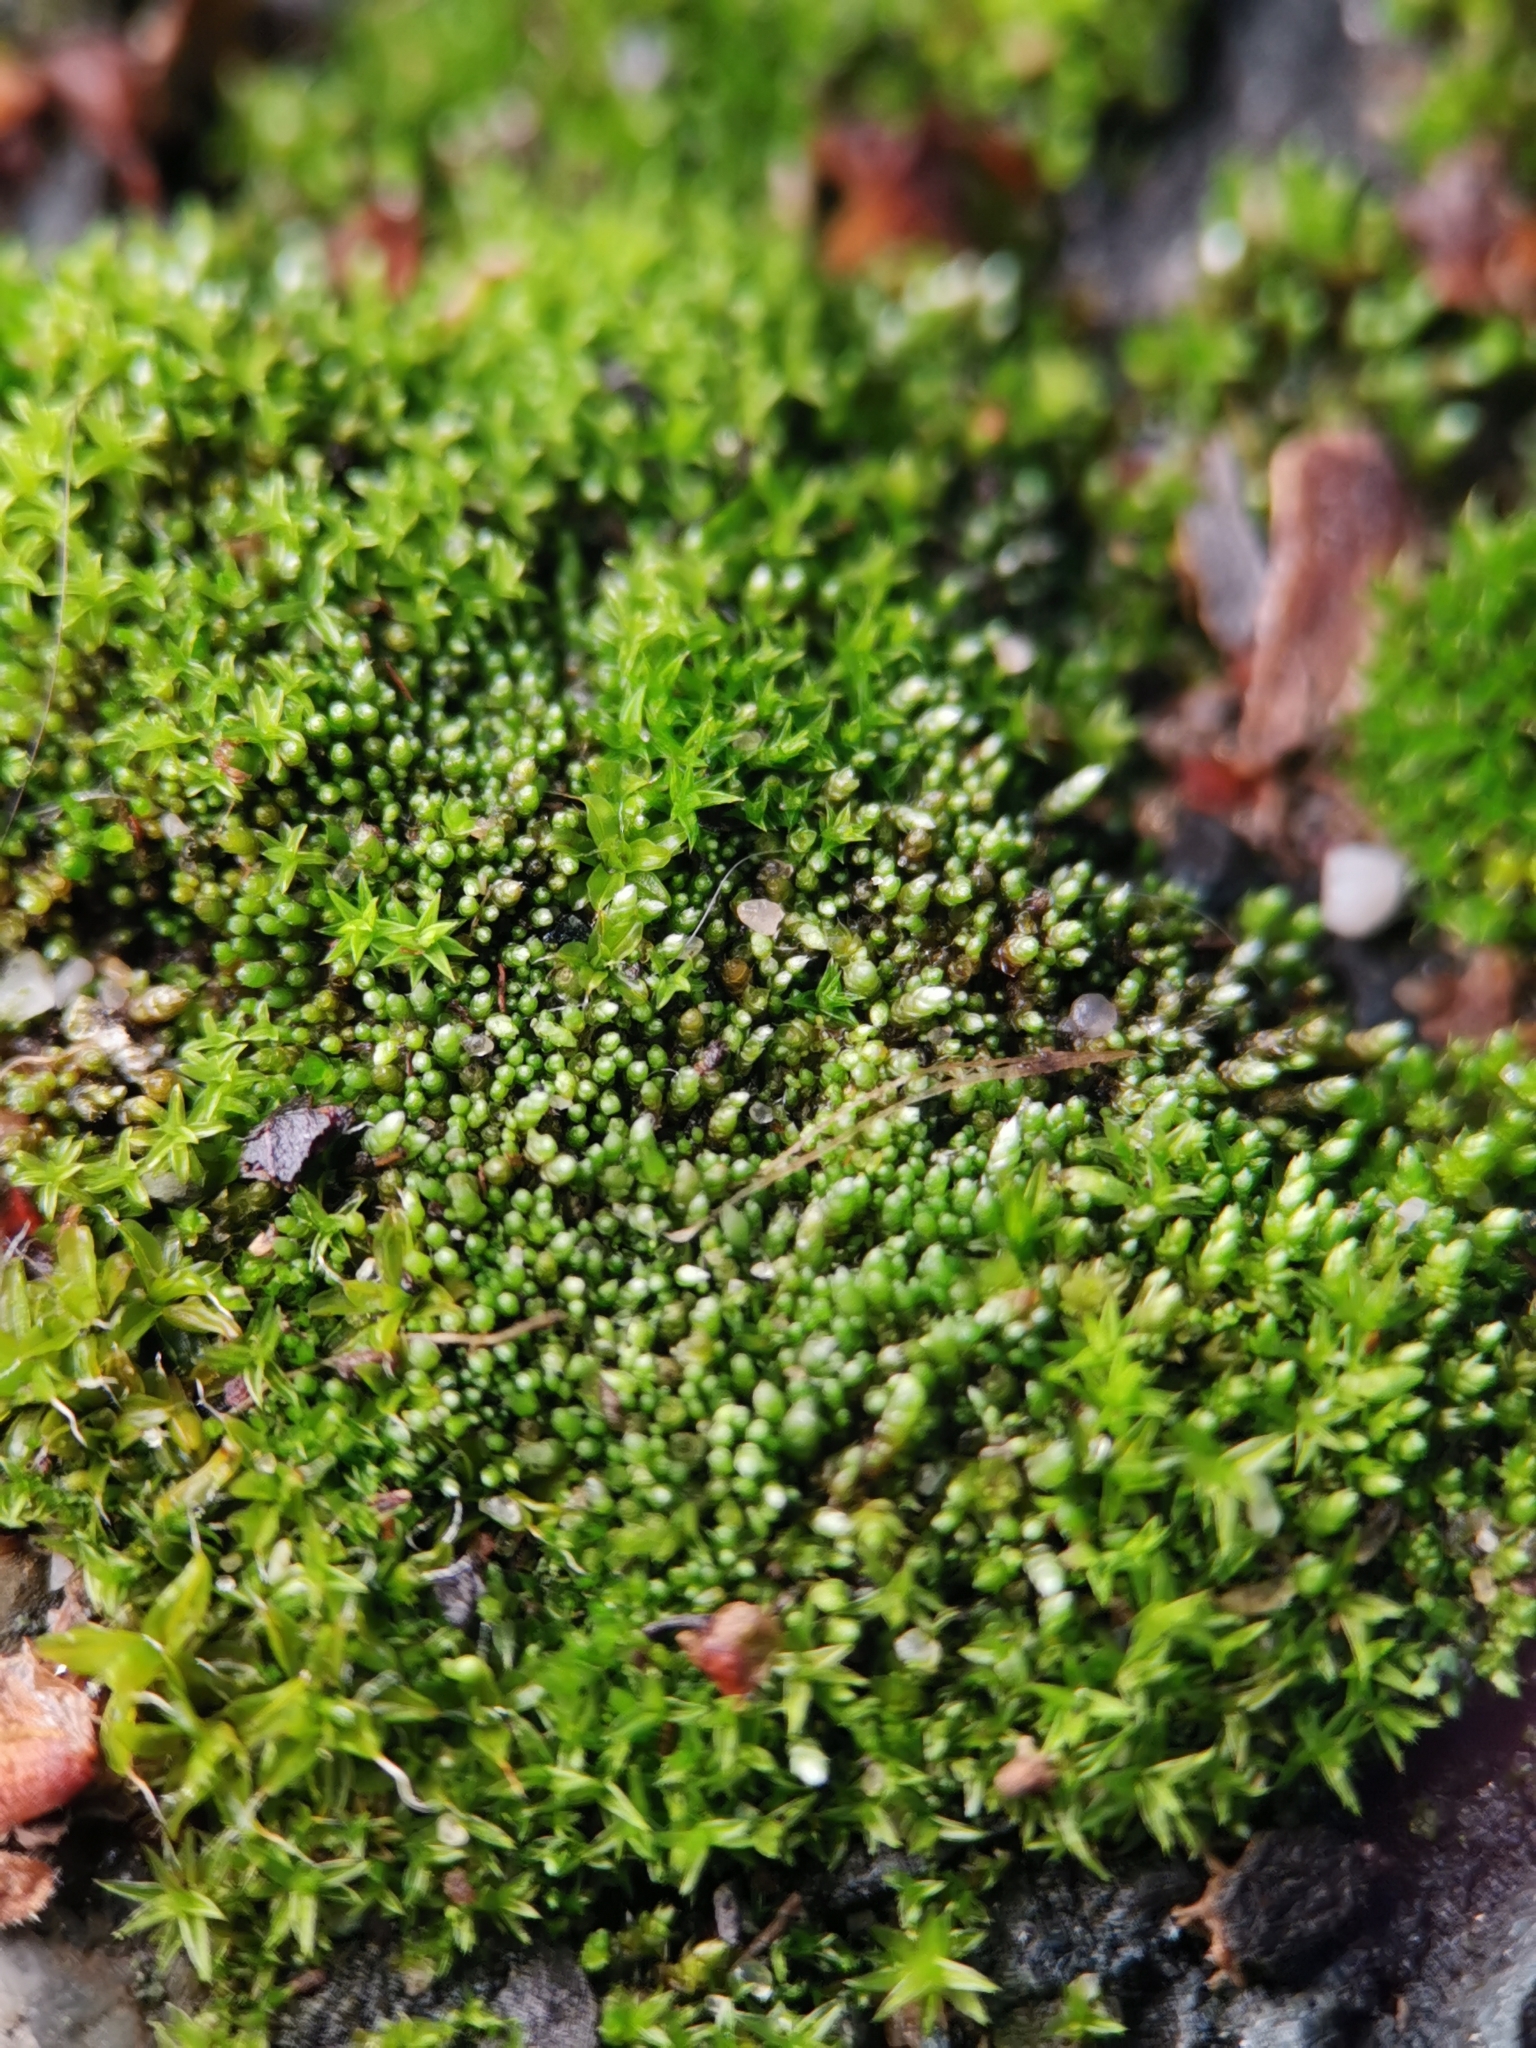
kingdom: Plantae
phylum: Bryophyta
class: Bryopsida
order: Bryales
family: Bryaceae
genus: Bryum
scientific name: Bryum argenteum
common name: Silver-moss
